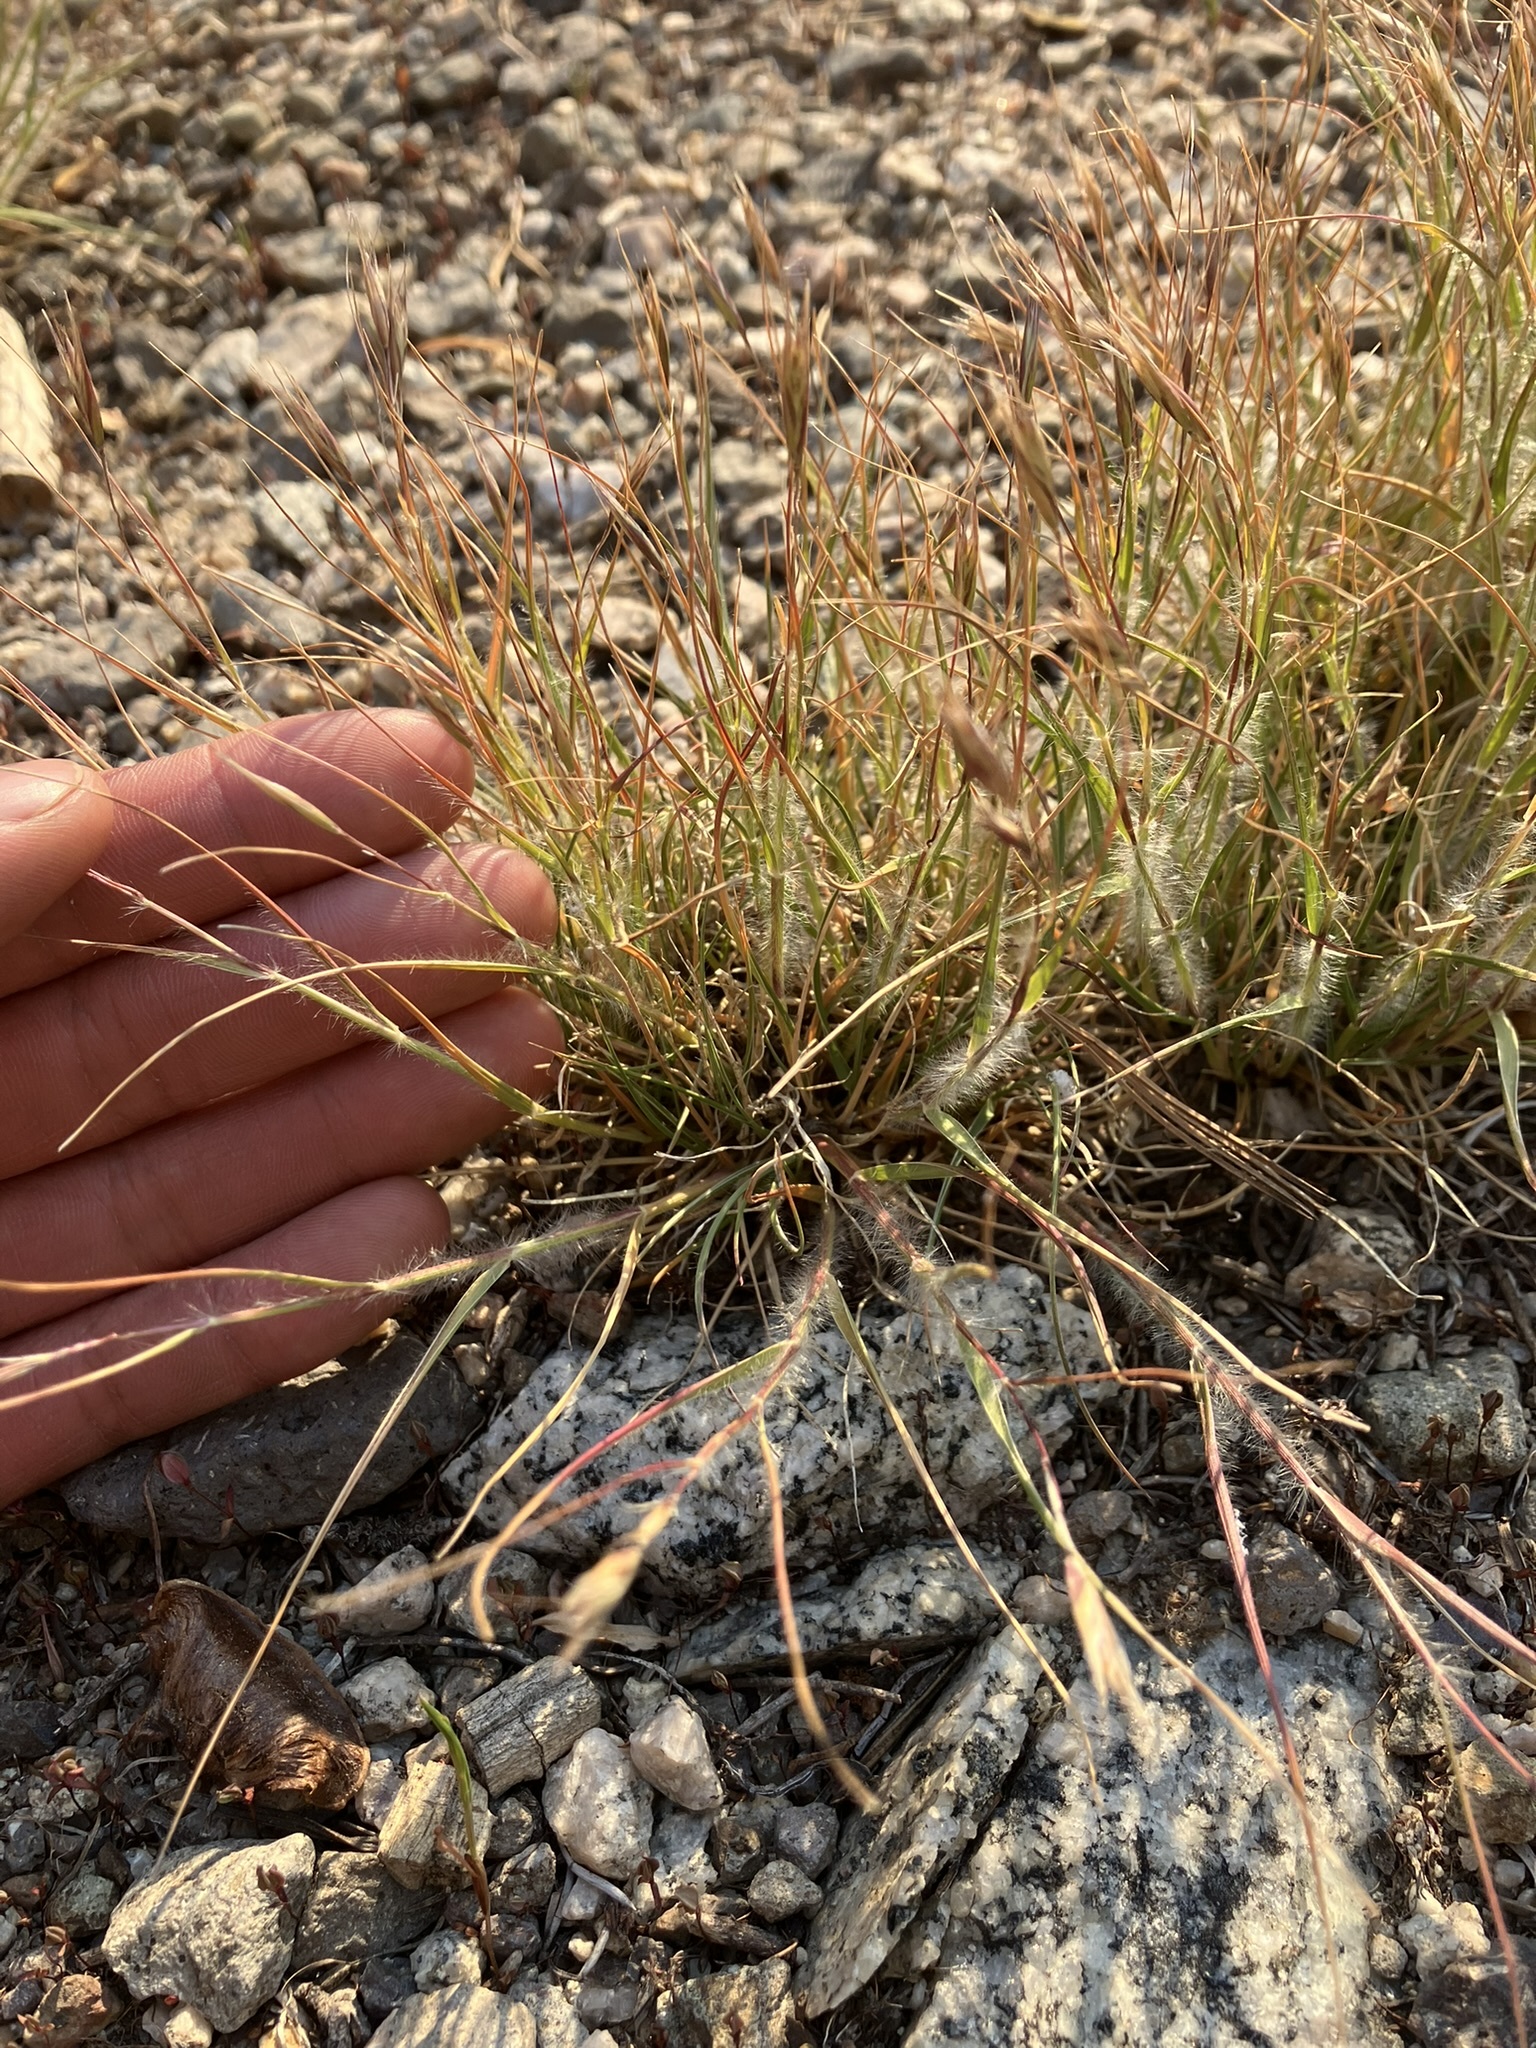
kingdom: Plantae
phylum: Tracheophyta
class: Liliopsida
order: Poales
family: Poaceae
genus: Danthonia
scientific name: Danthonia unispicata
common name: Few-flowered oatgrass
